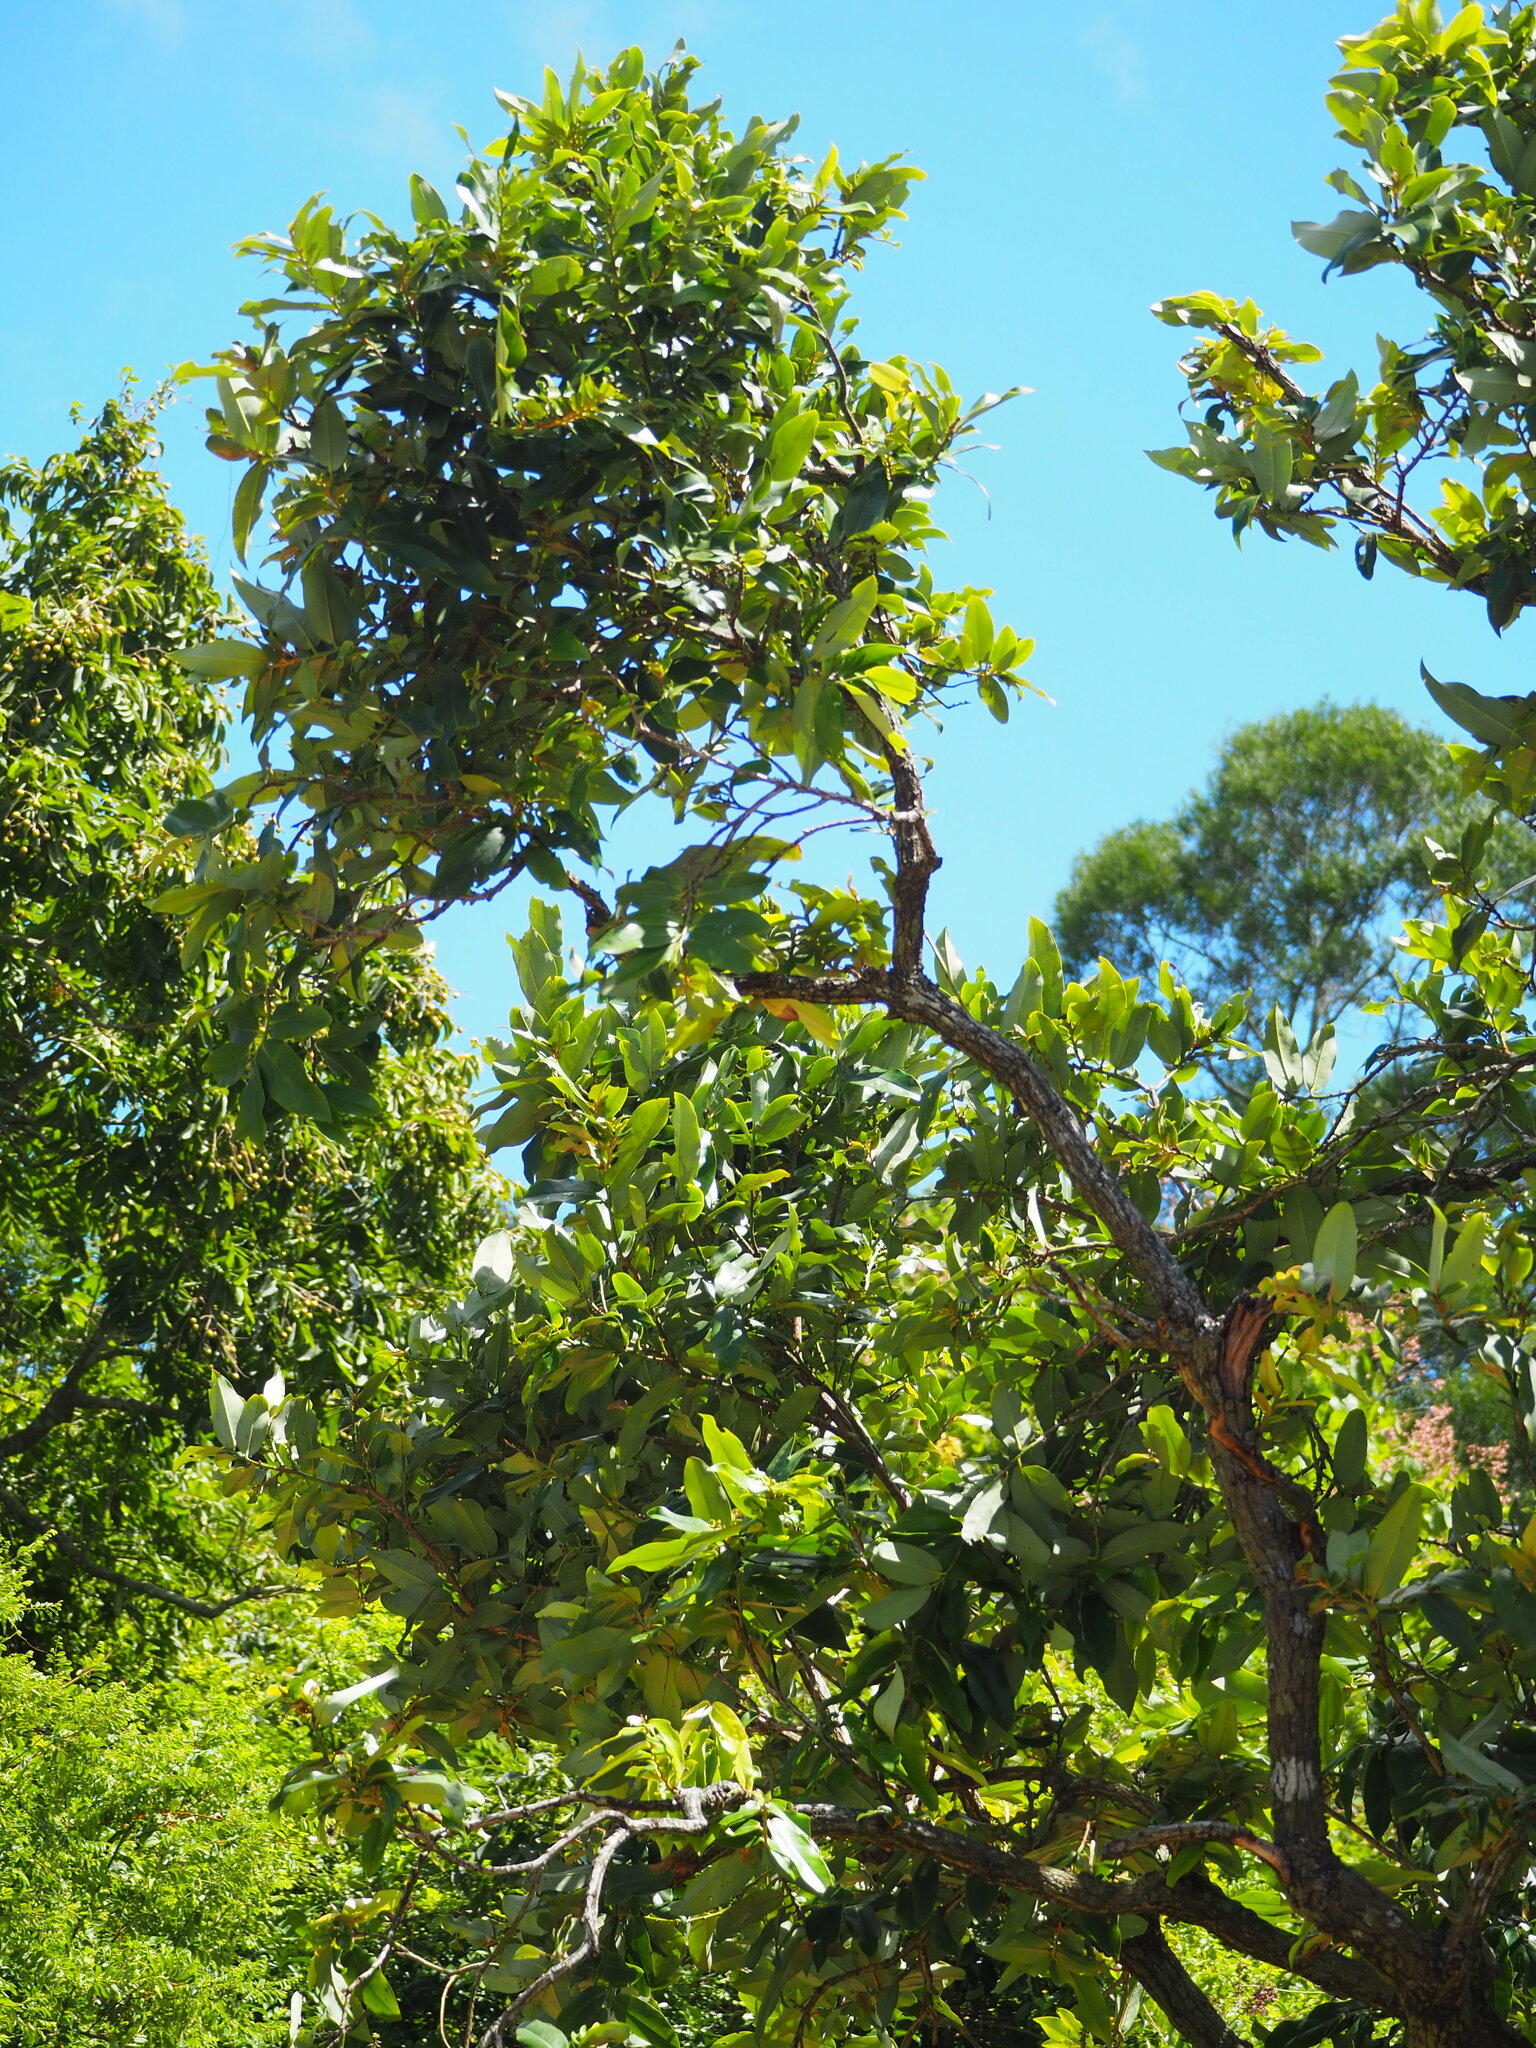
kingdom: Plantae
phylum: Tracheophyta
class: Magnoliopsida
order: Ericales
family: Ebenaceae
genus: Diospyros
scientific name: Diospyros blancoi
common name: Mabola-tree
